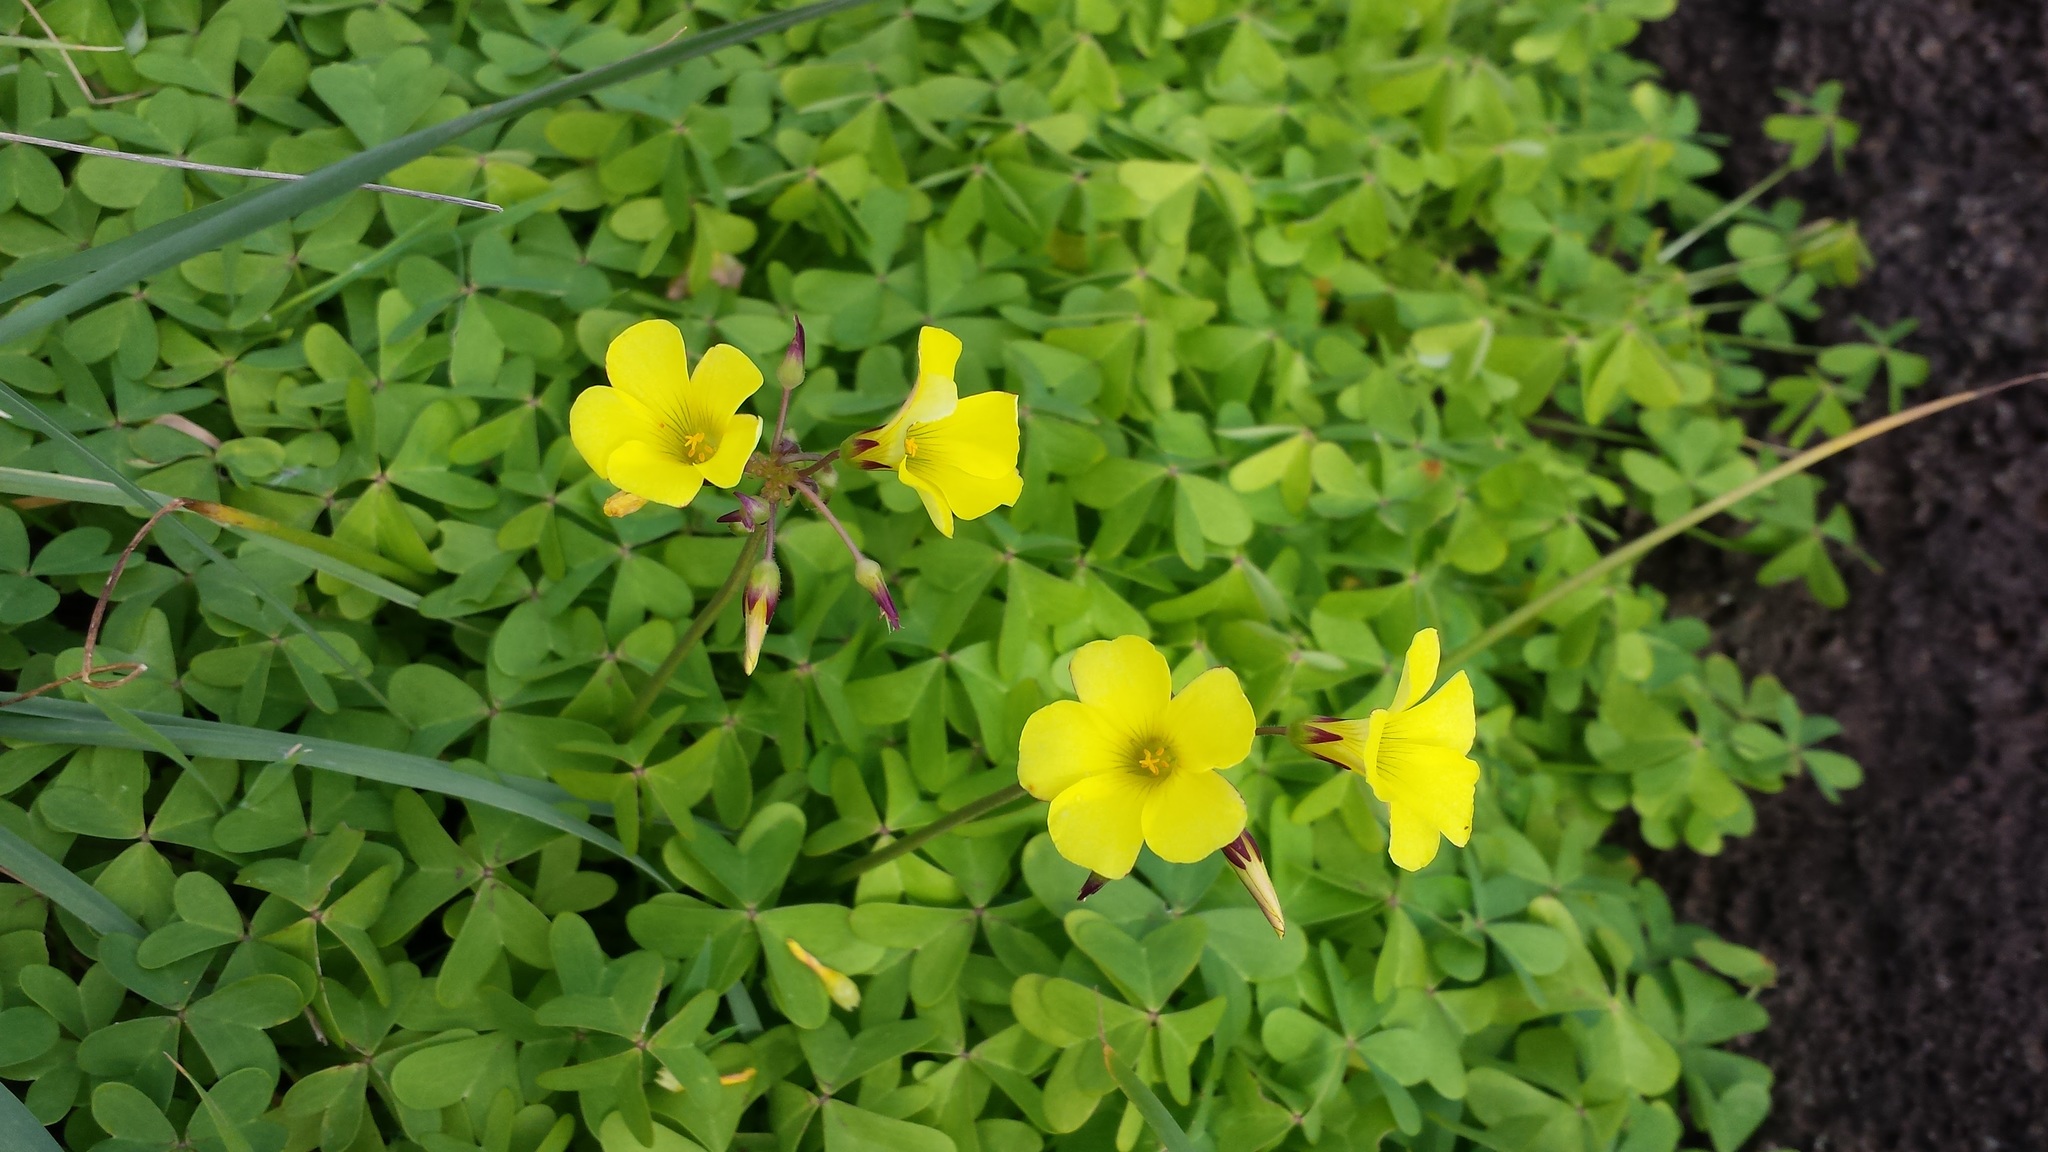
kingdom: Plantae
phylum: Tracheophyta
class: Magnoliopsida
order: Oxalidales
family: Oxalidaceae
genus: Oxalis
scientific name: Oxalis pes-caprae
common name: Bermuda-buttercup
